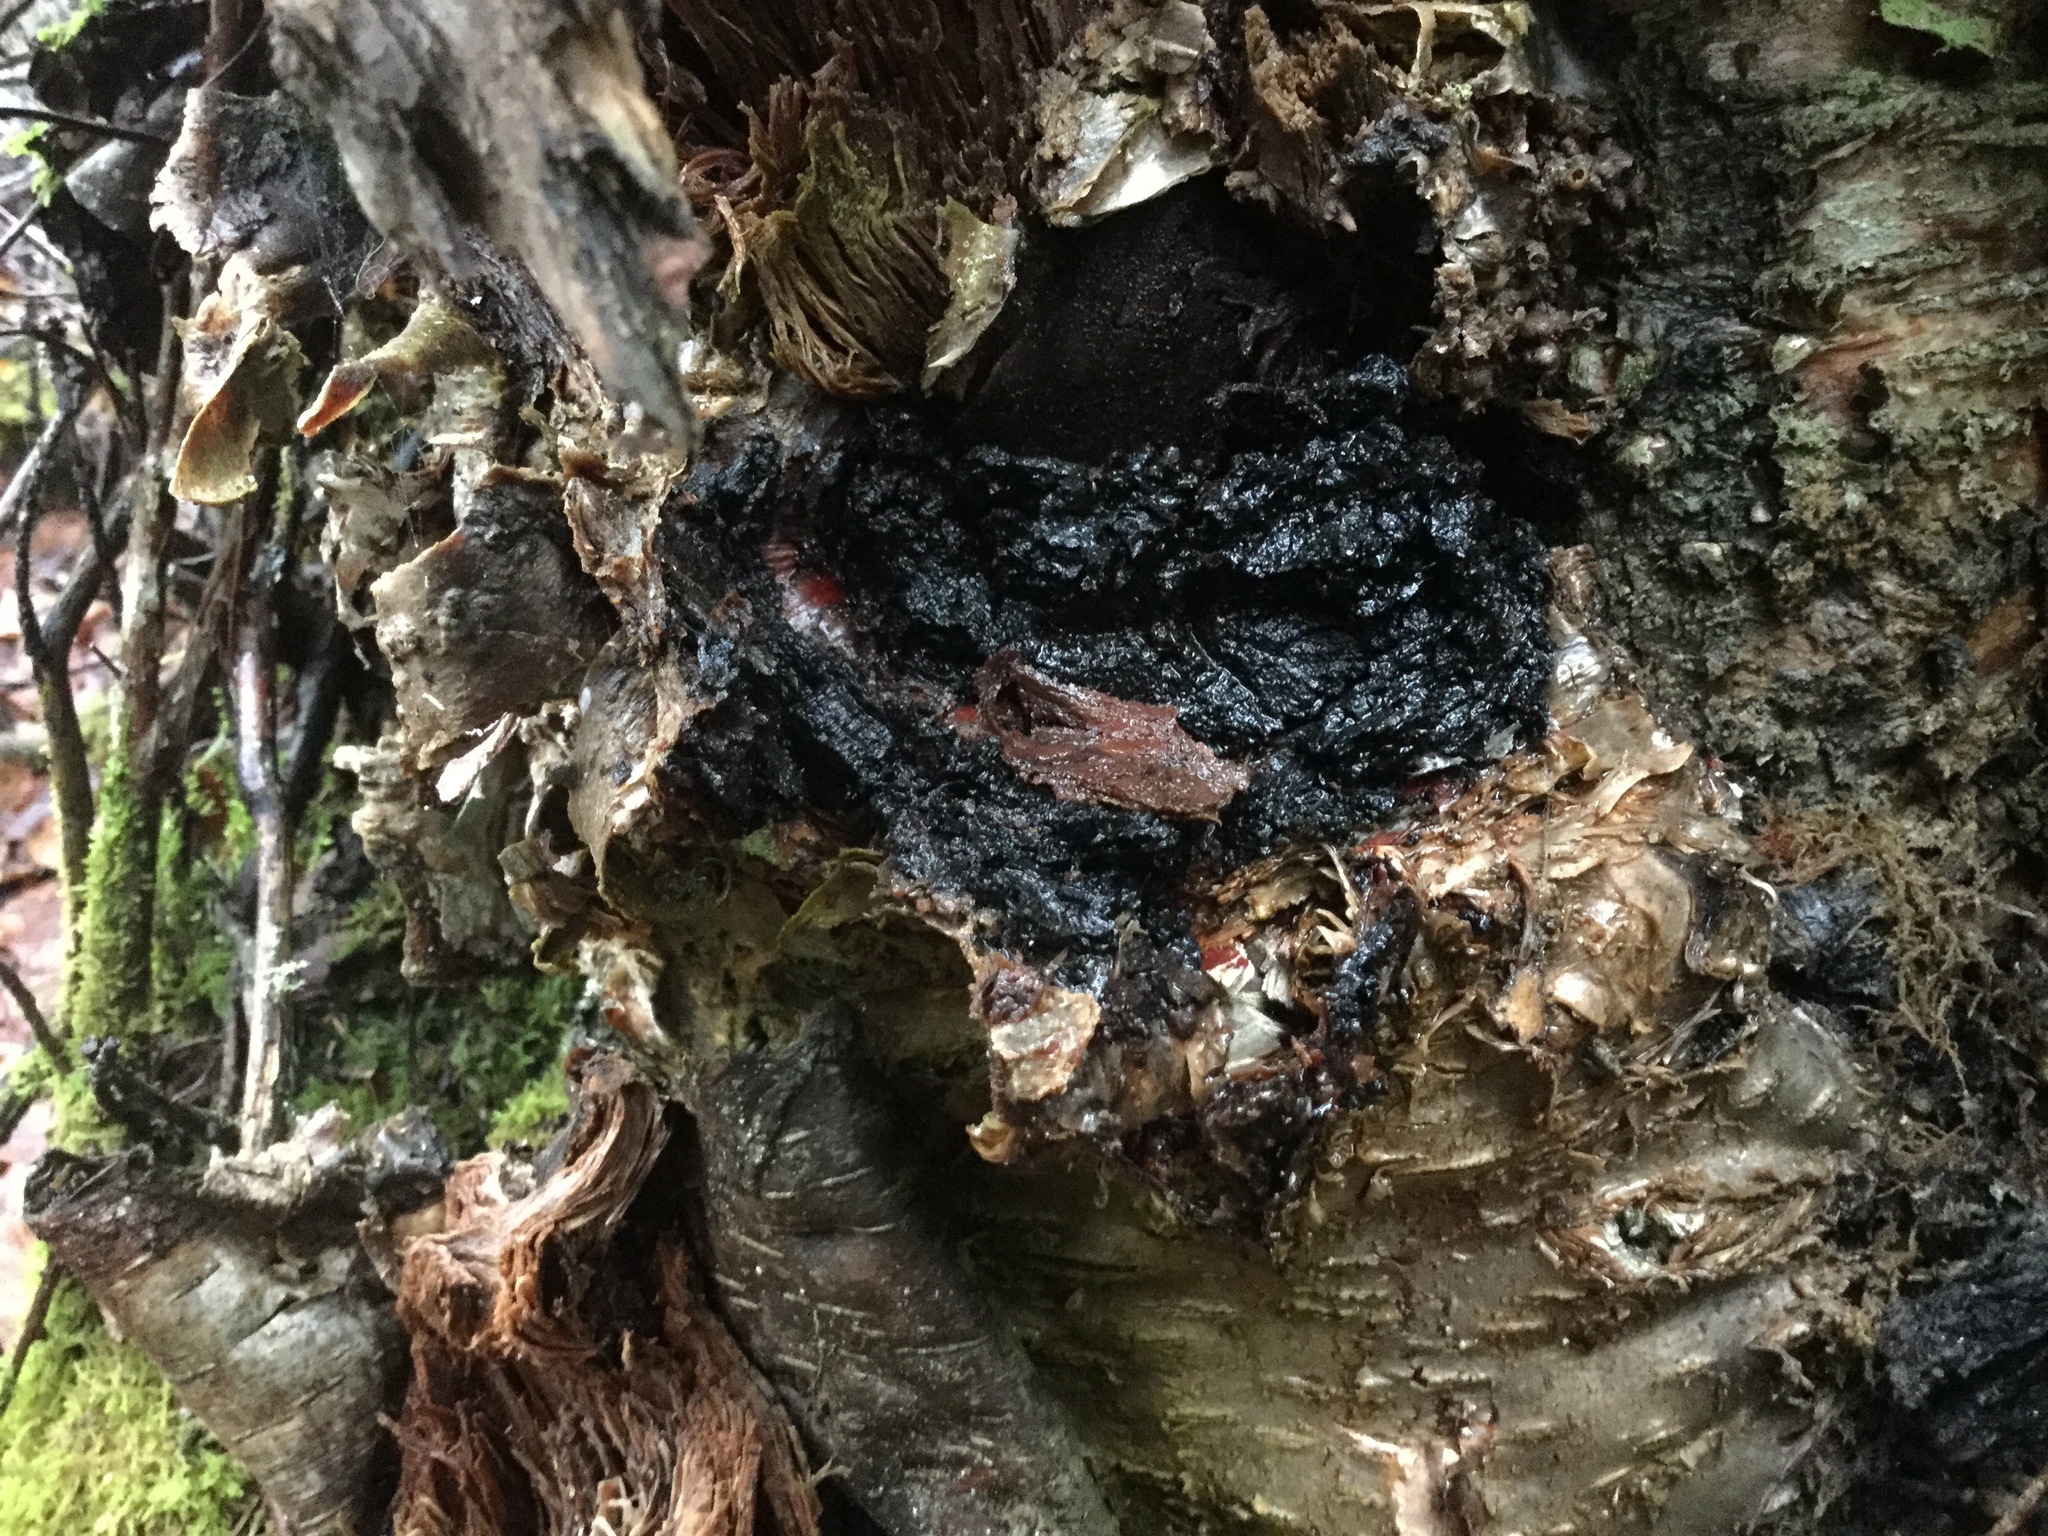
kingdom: Fungi
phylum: Basidiomycota
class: Agaricomycetes
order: Hymenochaetales
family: Hymenochaetaceae
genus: Inonotus
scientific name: Inonotus obliquus
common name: Chaga
